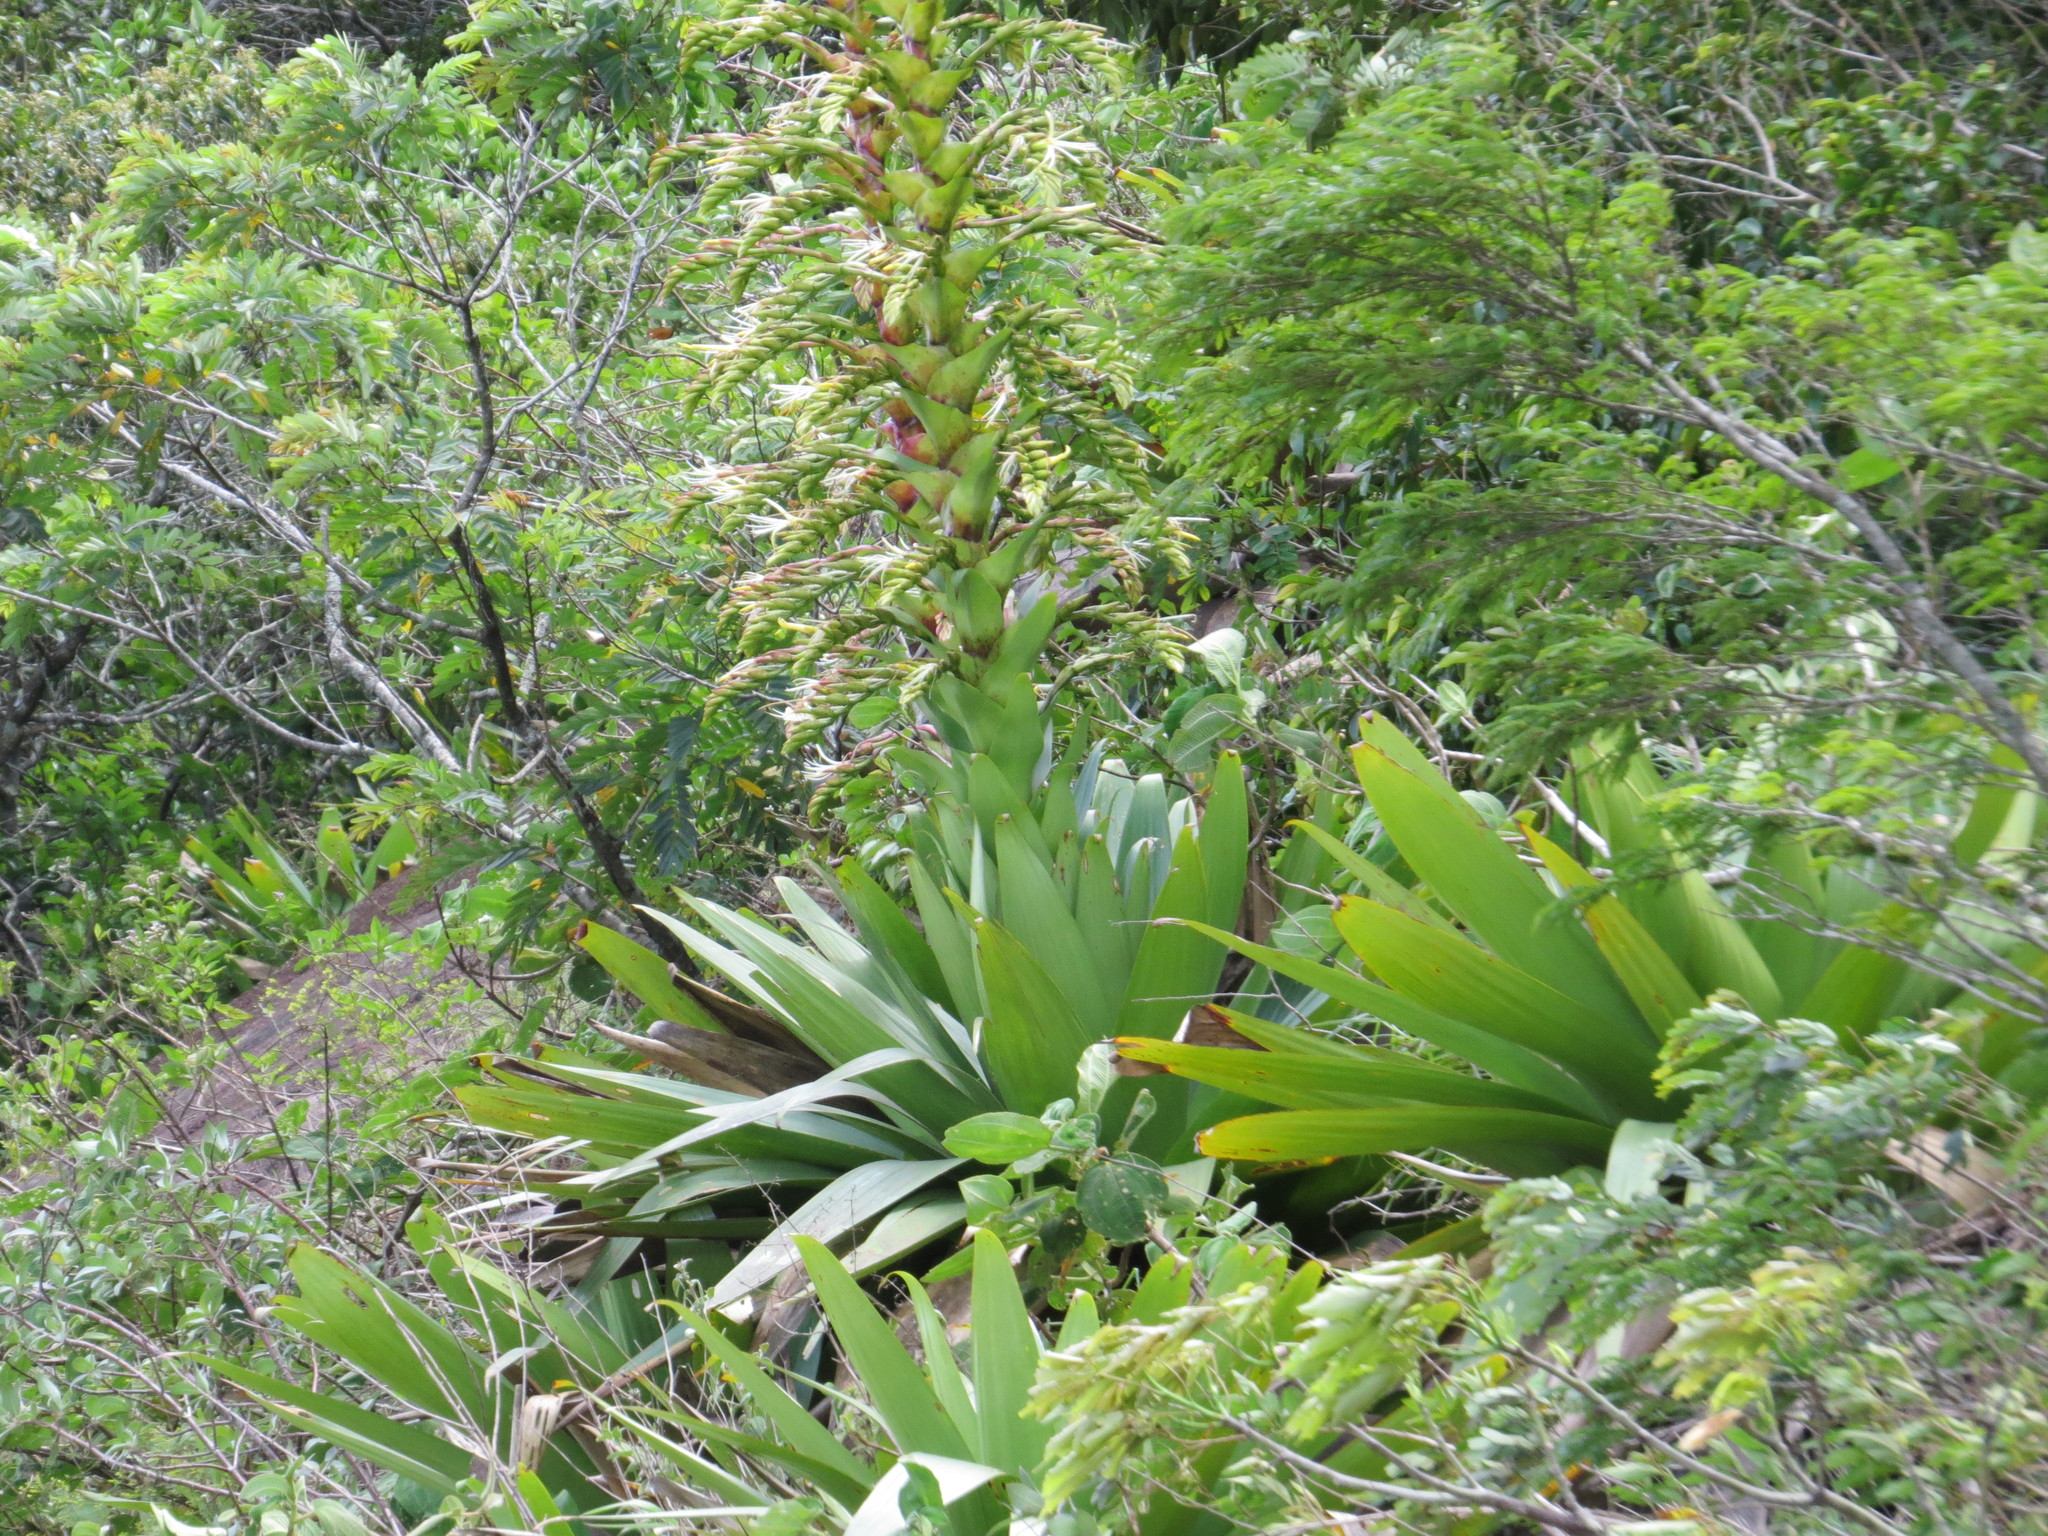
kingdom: Plantae
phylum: Tracheophyta
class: Liliopsida
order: Poales
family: Bromeliaceae
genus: Alcantarea
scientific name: Alcantarea imperialis
